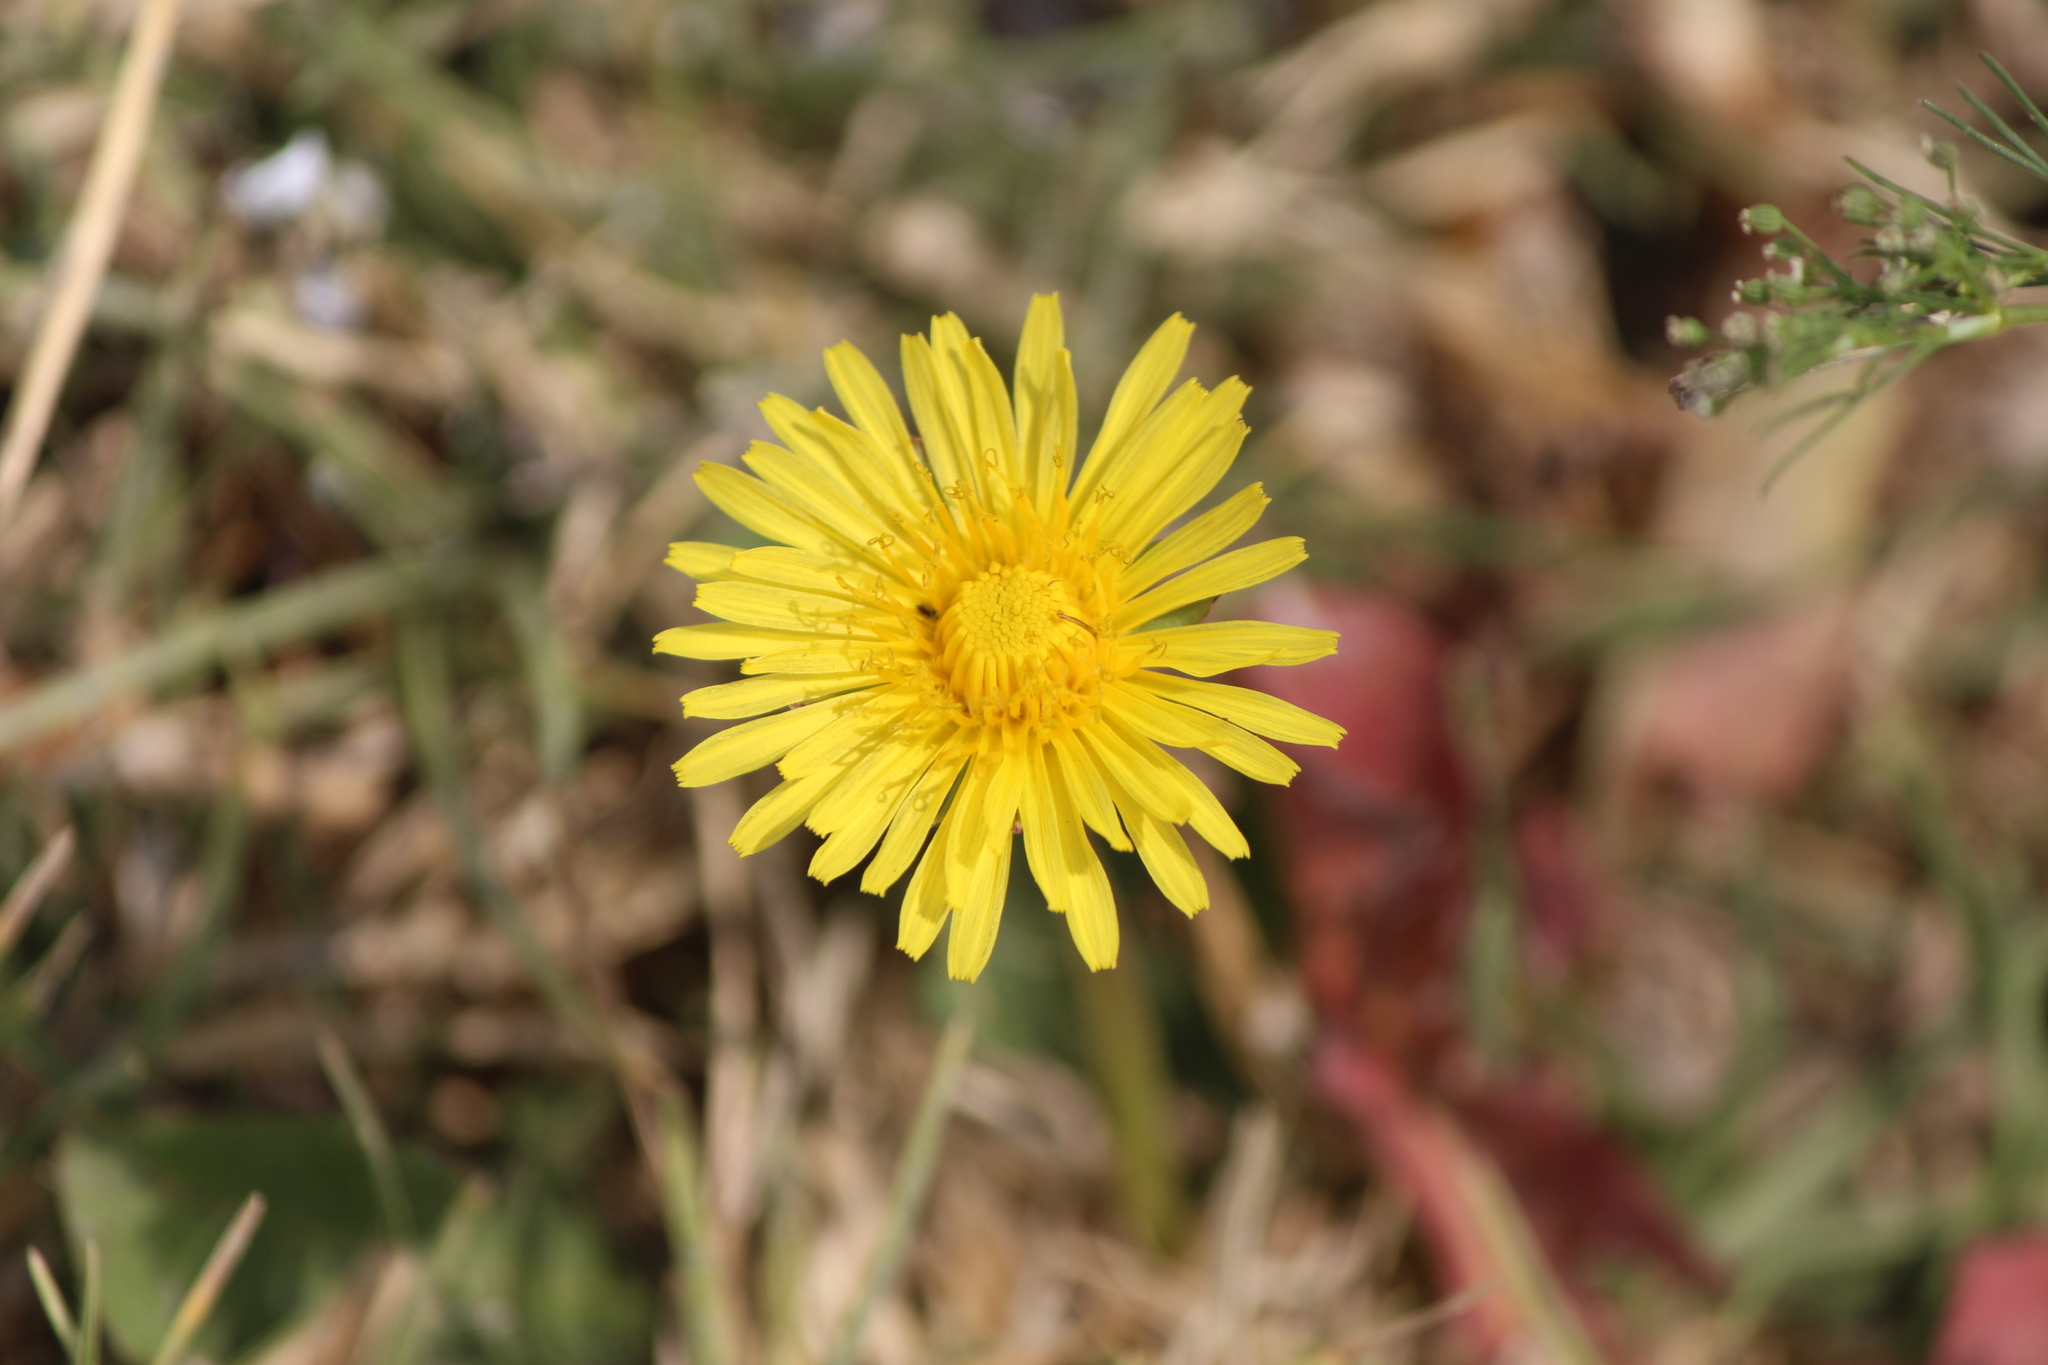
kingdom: Plantae
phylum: Tracheophyta
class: Magnoliopsida
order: Asterales
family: Asteraceae
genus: Taraxacum
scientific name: Taraxacum officinale
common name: Common dandelion
